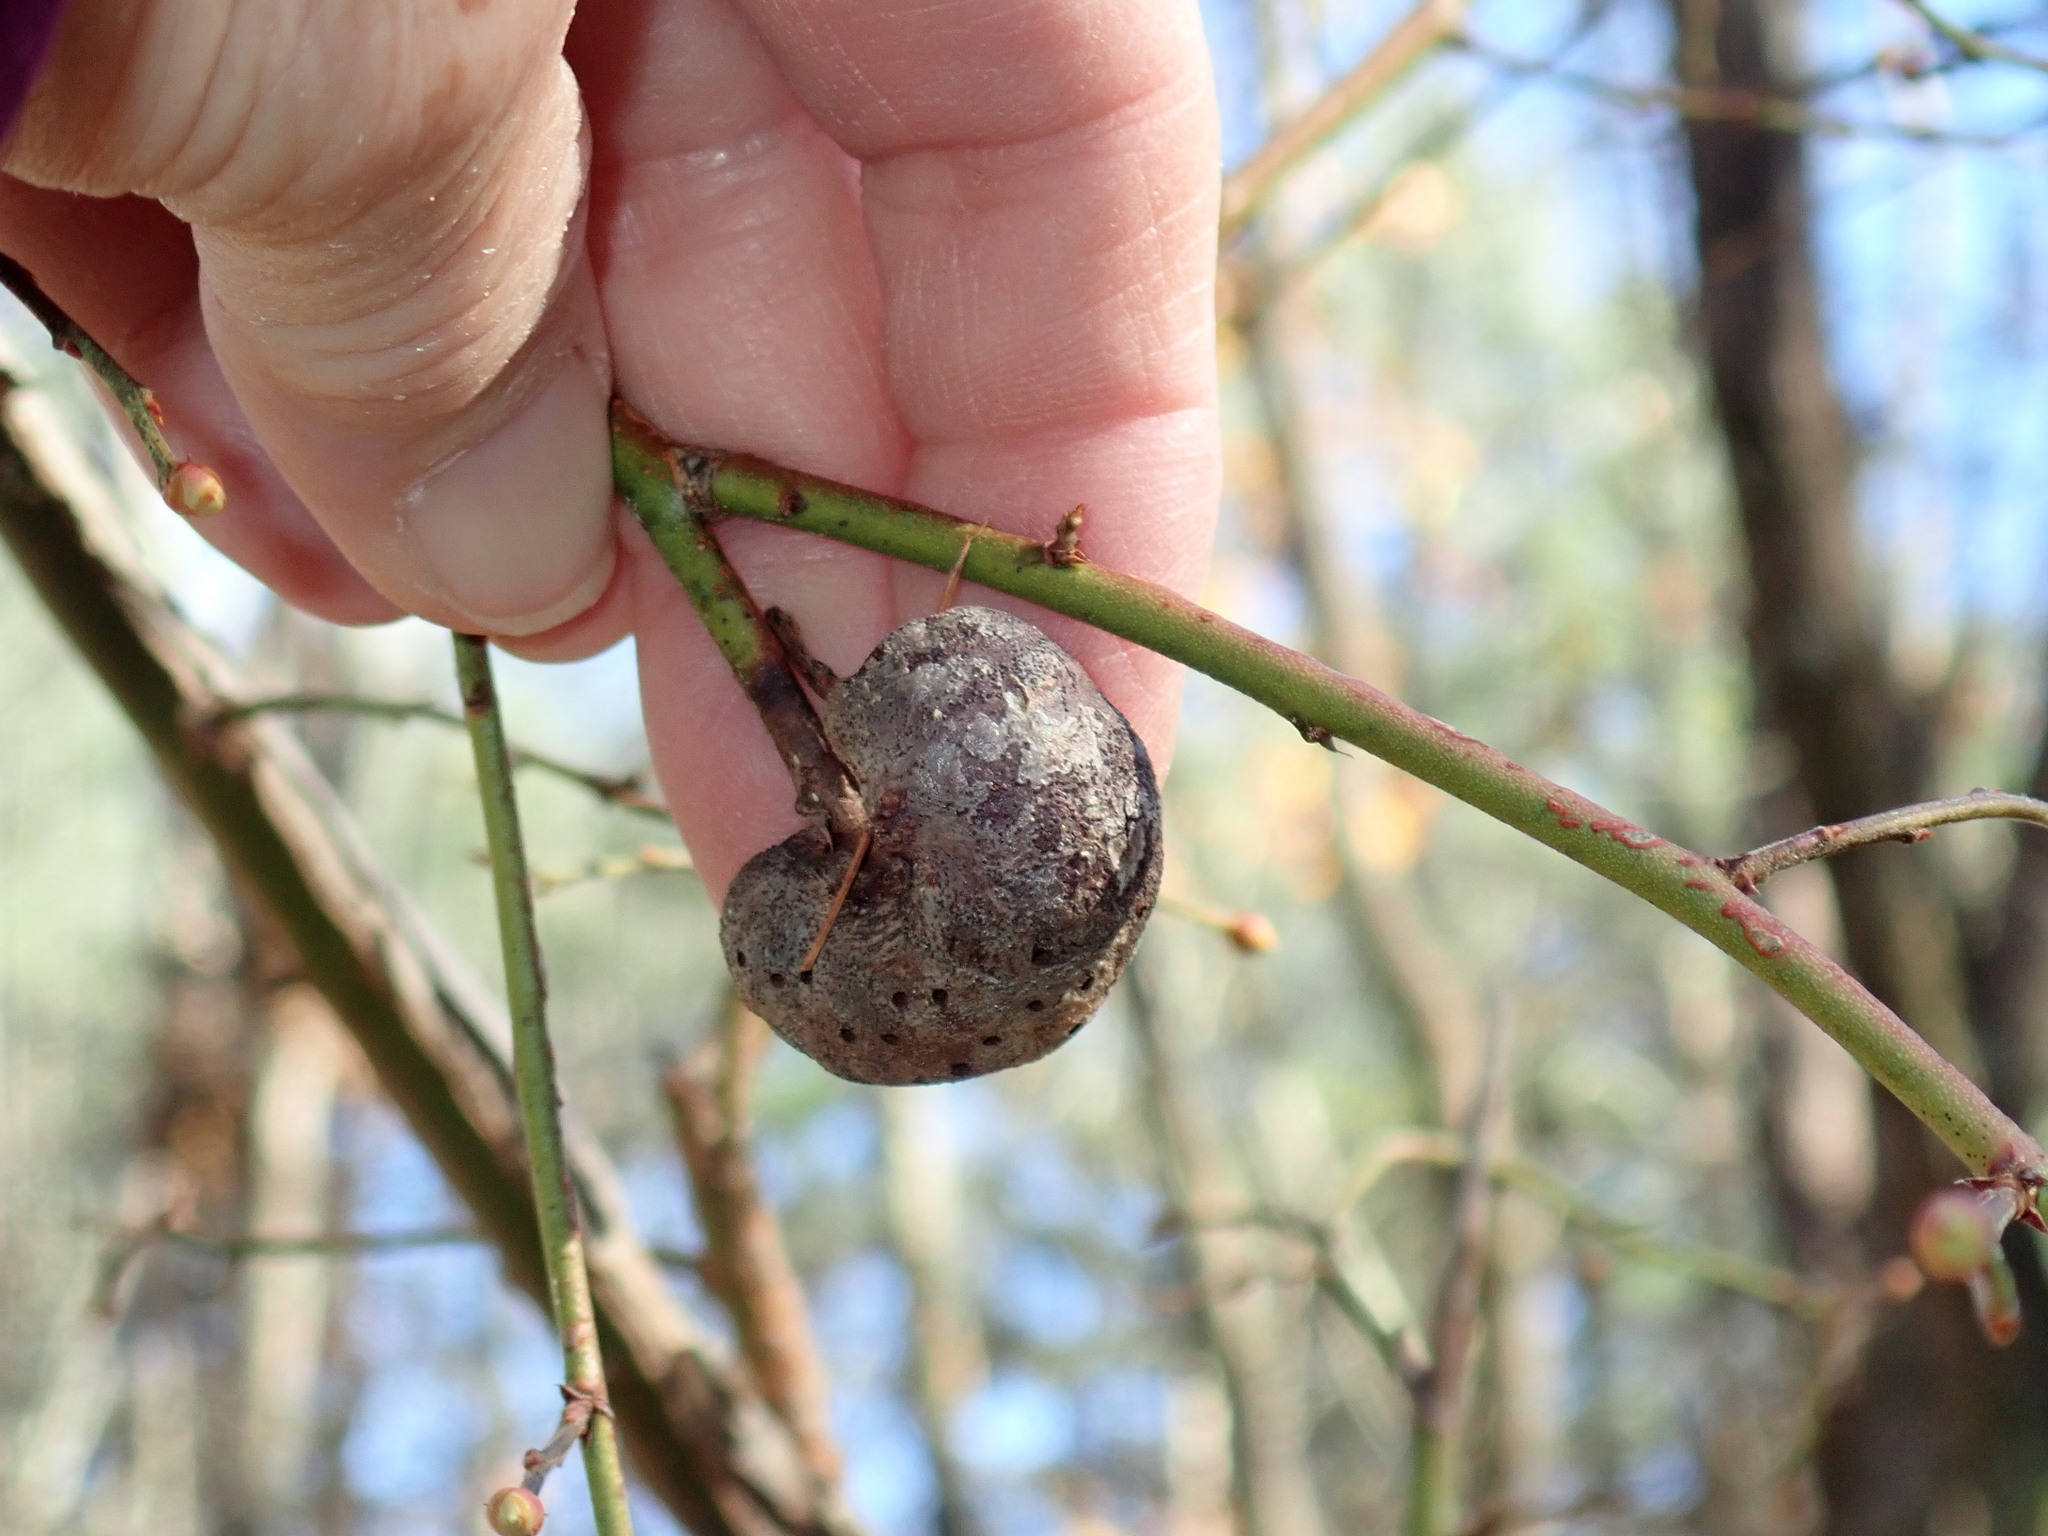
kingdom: Animalia
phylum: Arthropoda
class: Insecta
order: Hymenoptera
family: Pteromalidae
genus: Hemadas
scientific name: Hemadas nubilipennis
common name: Blueberry stem gall wasp
